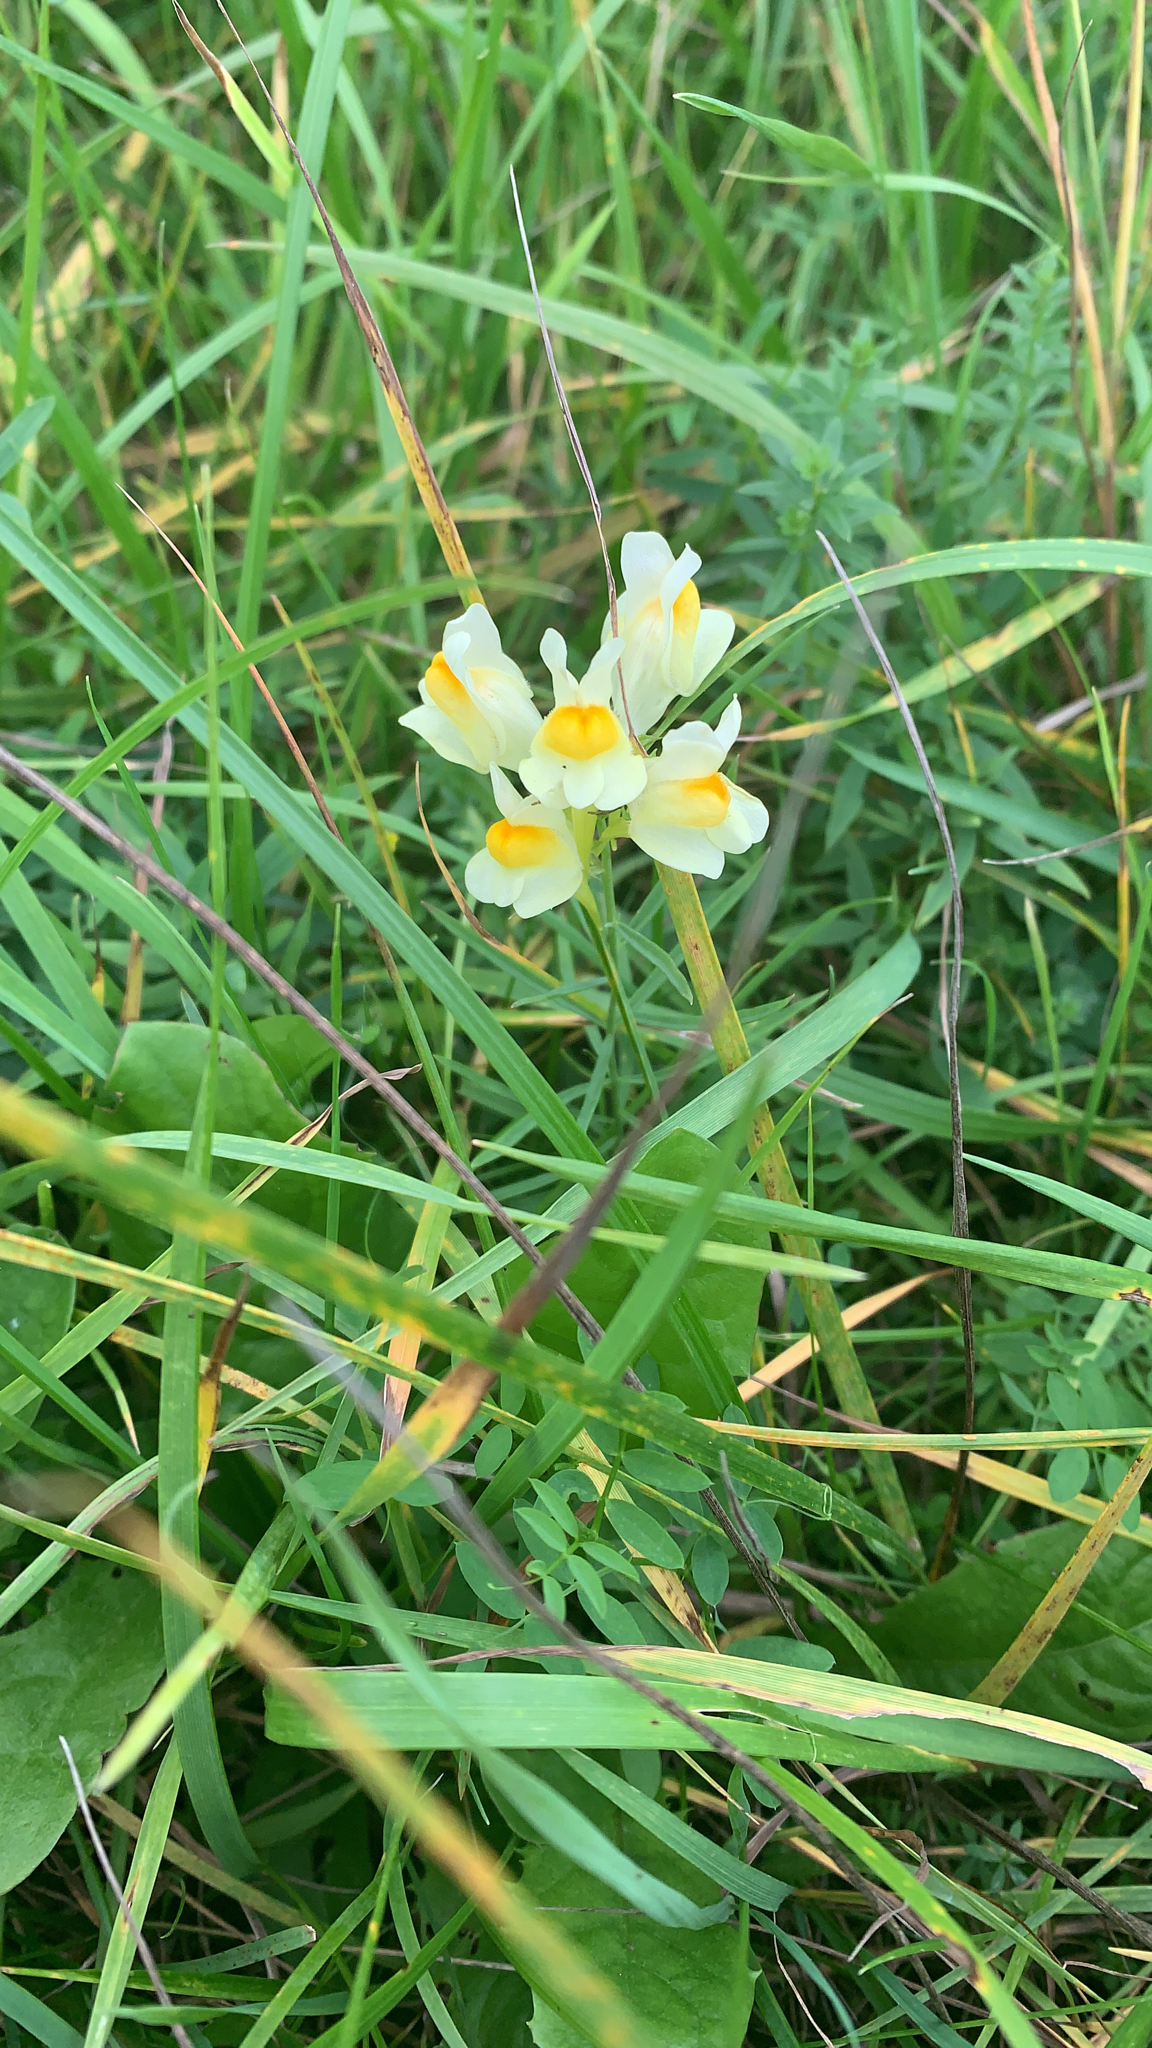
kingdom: Plantae
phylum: Tracheophyta
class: Magnoliopsida
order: Lamiales
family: Plantaginaceae
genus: Linaria
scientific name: Linaria vulgaris
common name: Butter and eggs
